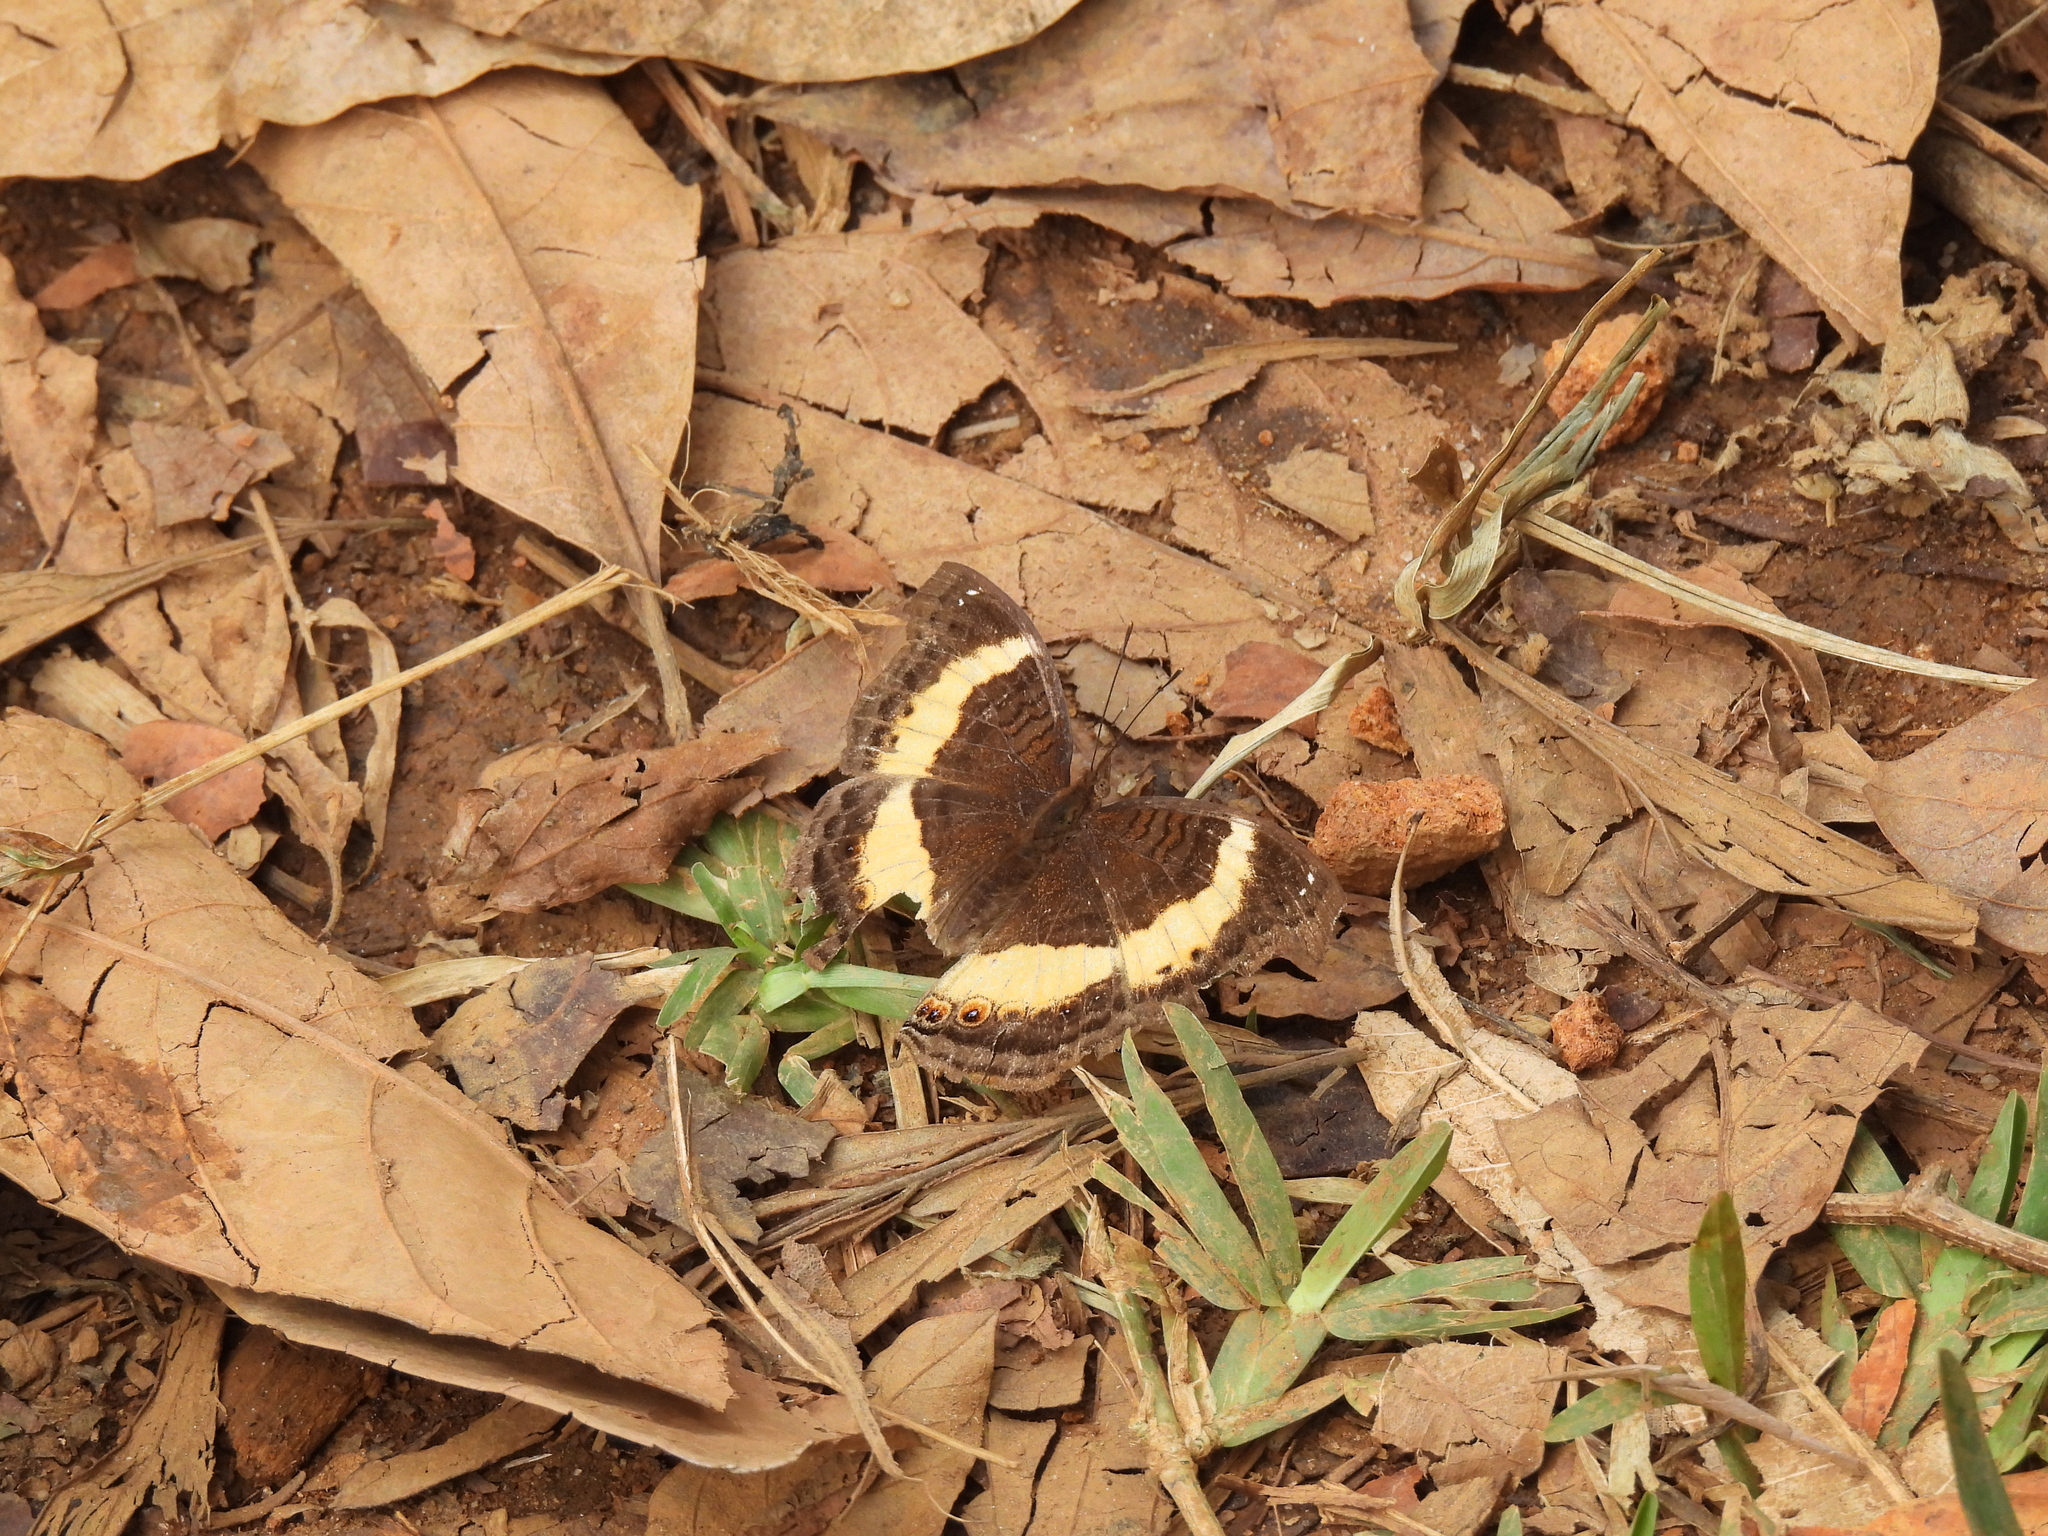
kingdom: Animalia
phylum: Arthropoda
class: Insecta
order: Lepidoptera
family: Nymphalidae
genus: Junonia
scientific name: Junonia terea
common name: Soldier pansy
